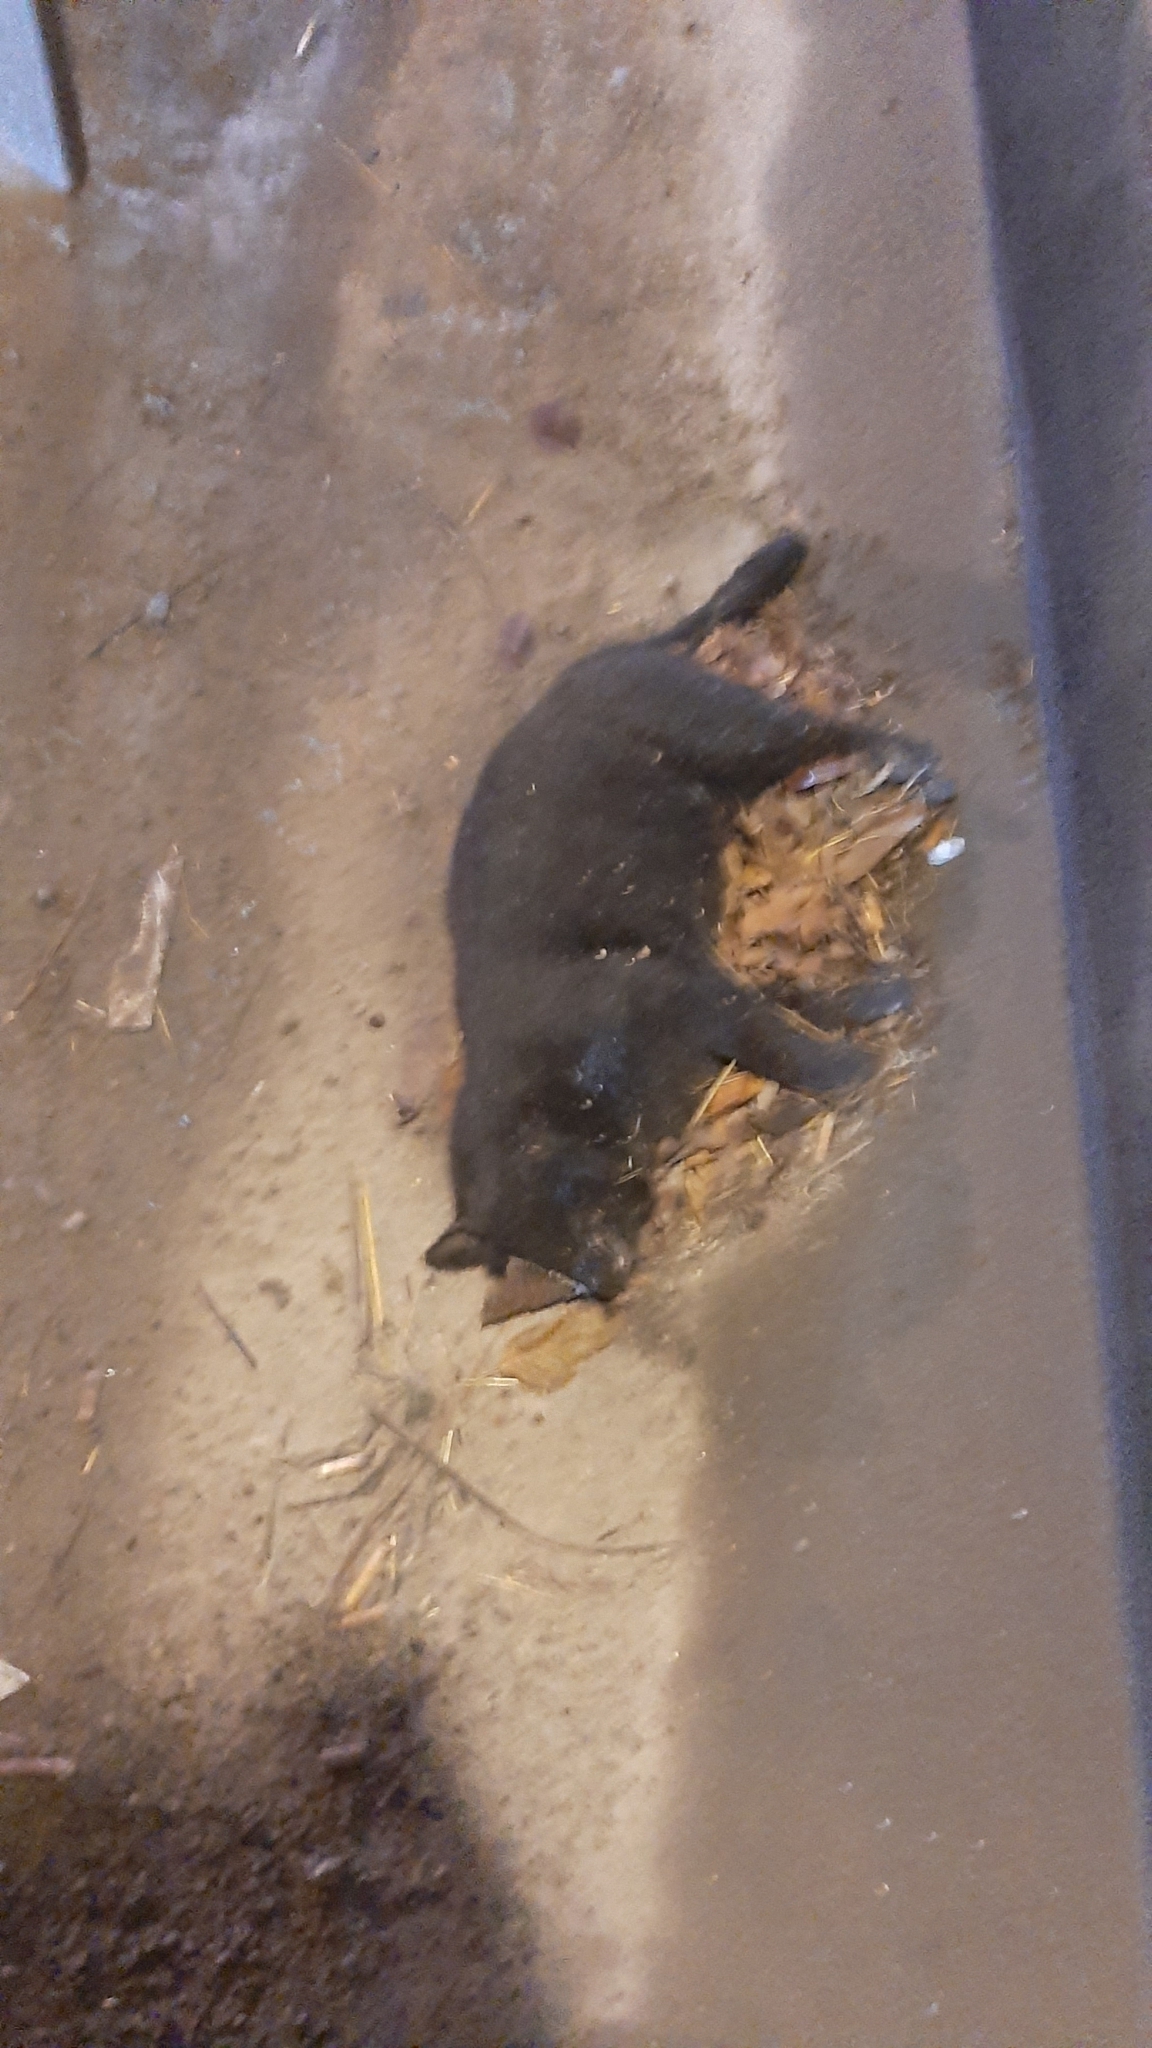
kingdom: Animalia
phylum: Chordata
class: Mammalia
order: Carnivora
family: Felidae
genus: Felis
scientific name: Felis catus
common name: Domestic cat
